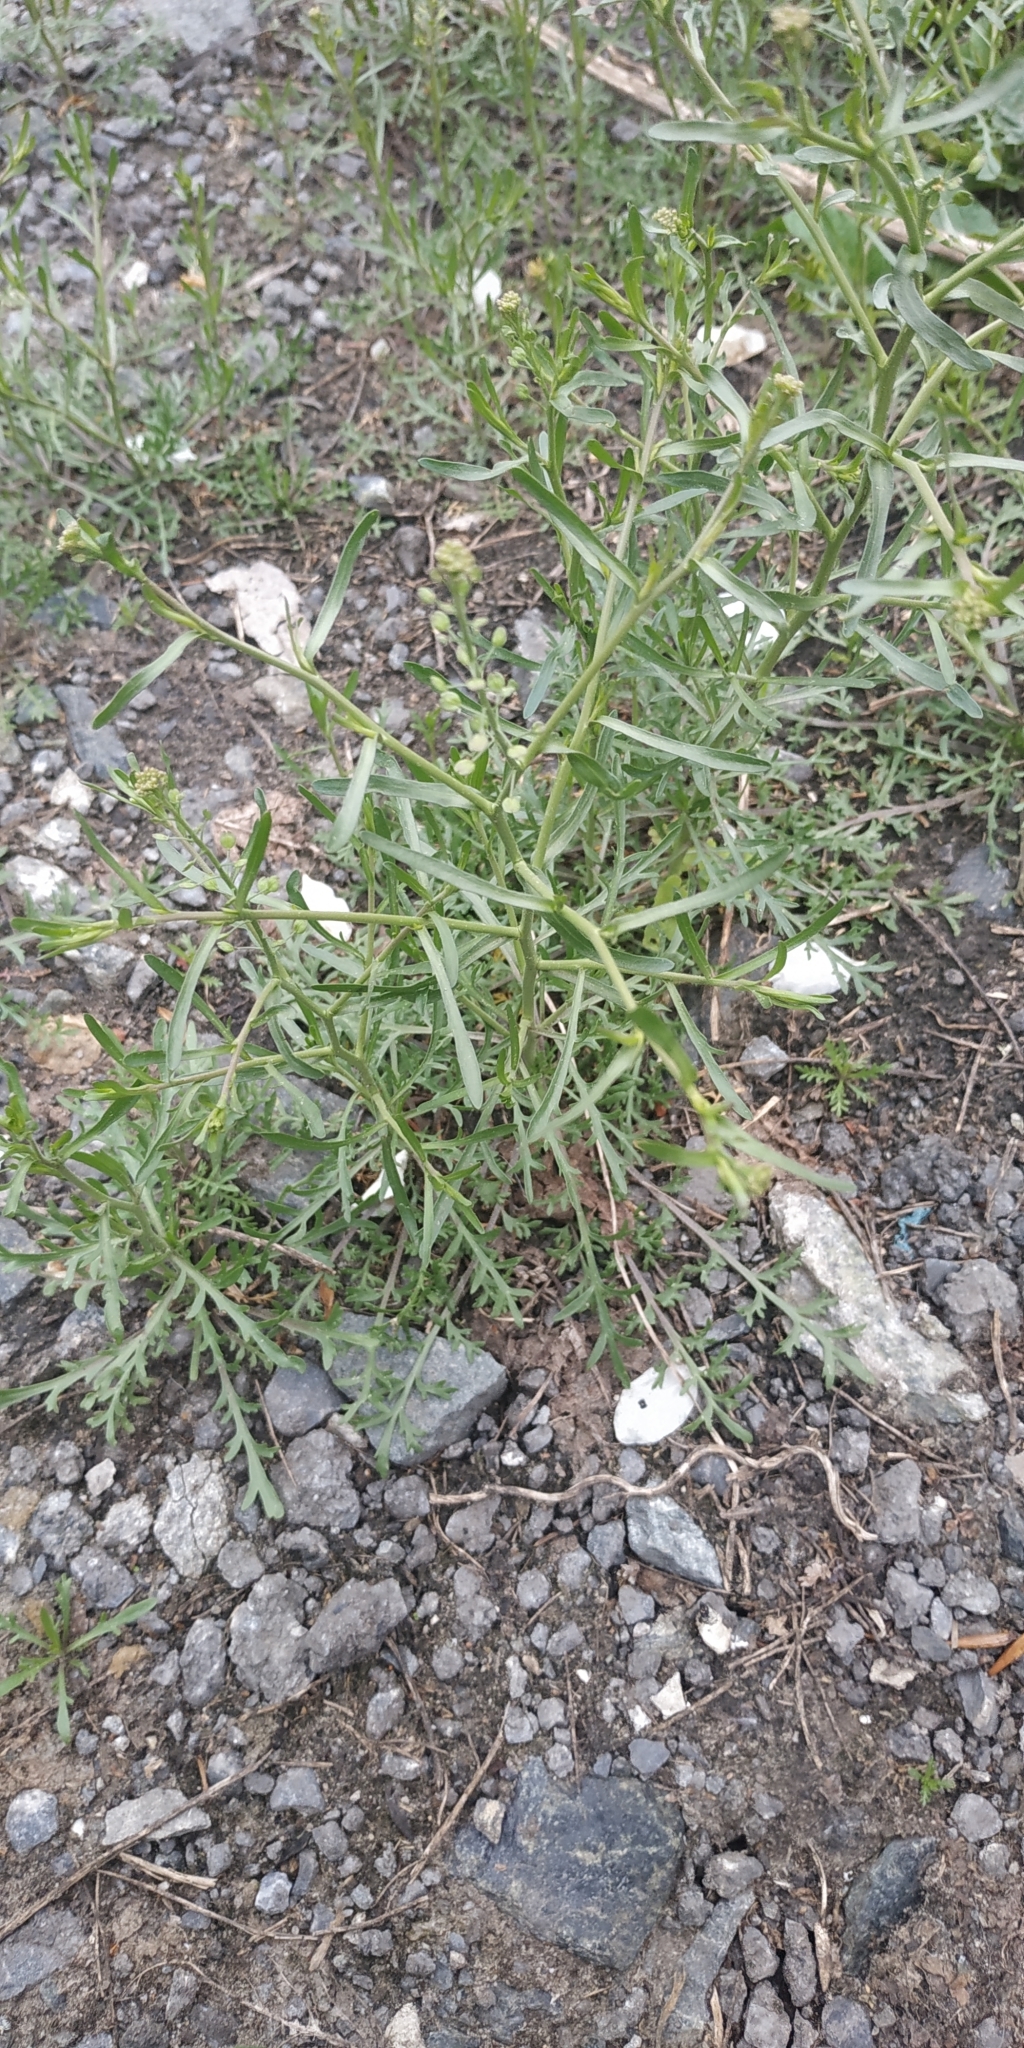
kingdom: Plantae
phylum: Tracheophyta
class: Magnoliopsida
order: Brassicales
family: Brassicaceae
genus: Lepidium
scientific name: Lepidium densiflorum
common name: Miner's pepperwort
